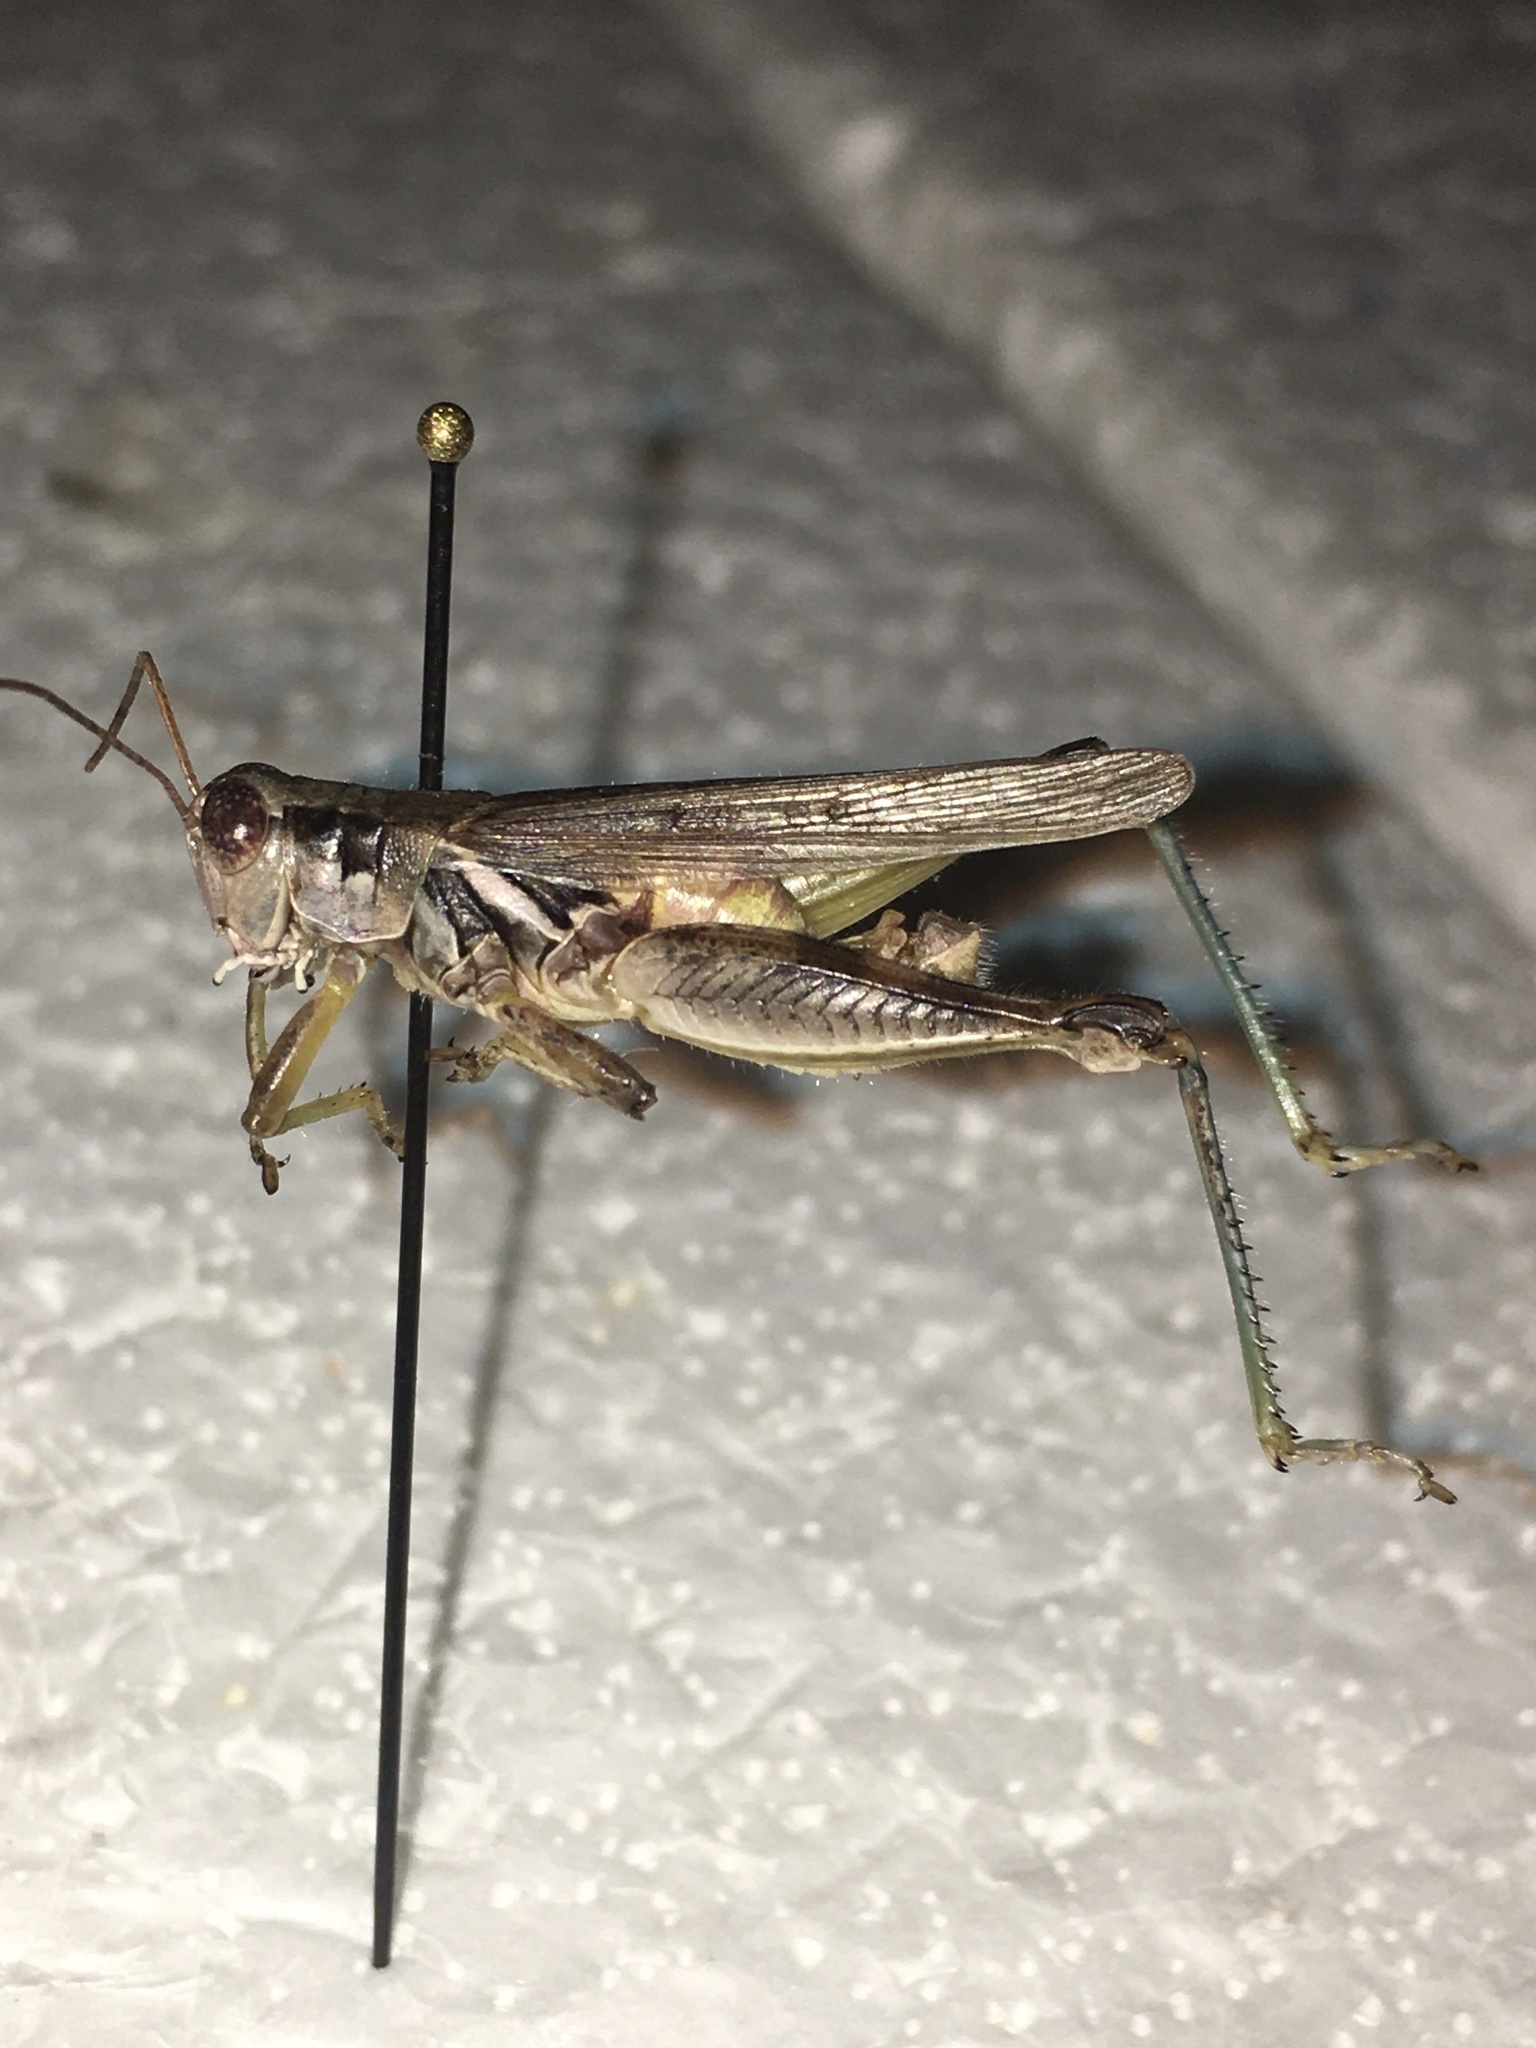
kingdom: Animalia
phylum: Arthropoda
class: Insecta
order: Orthoptera
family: Acrididae
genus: Melanoplus
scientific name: Melanoplus angustipennis
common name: Narrow-winged locust
